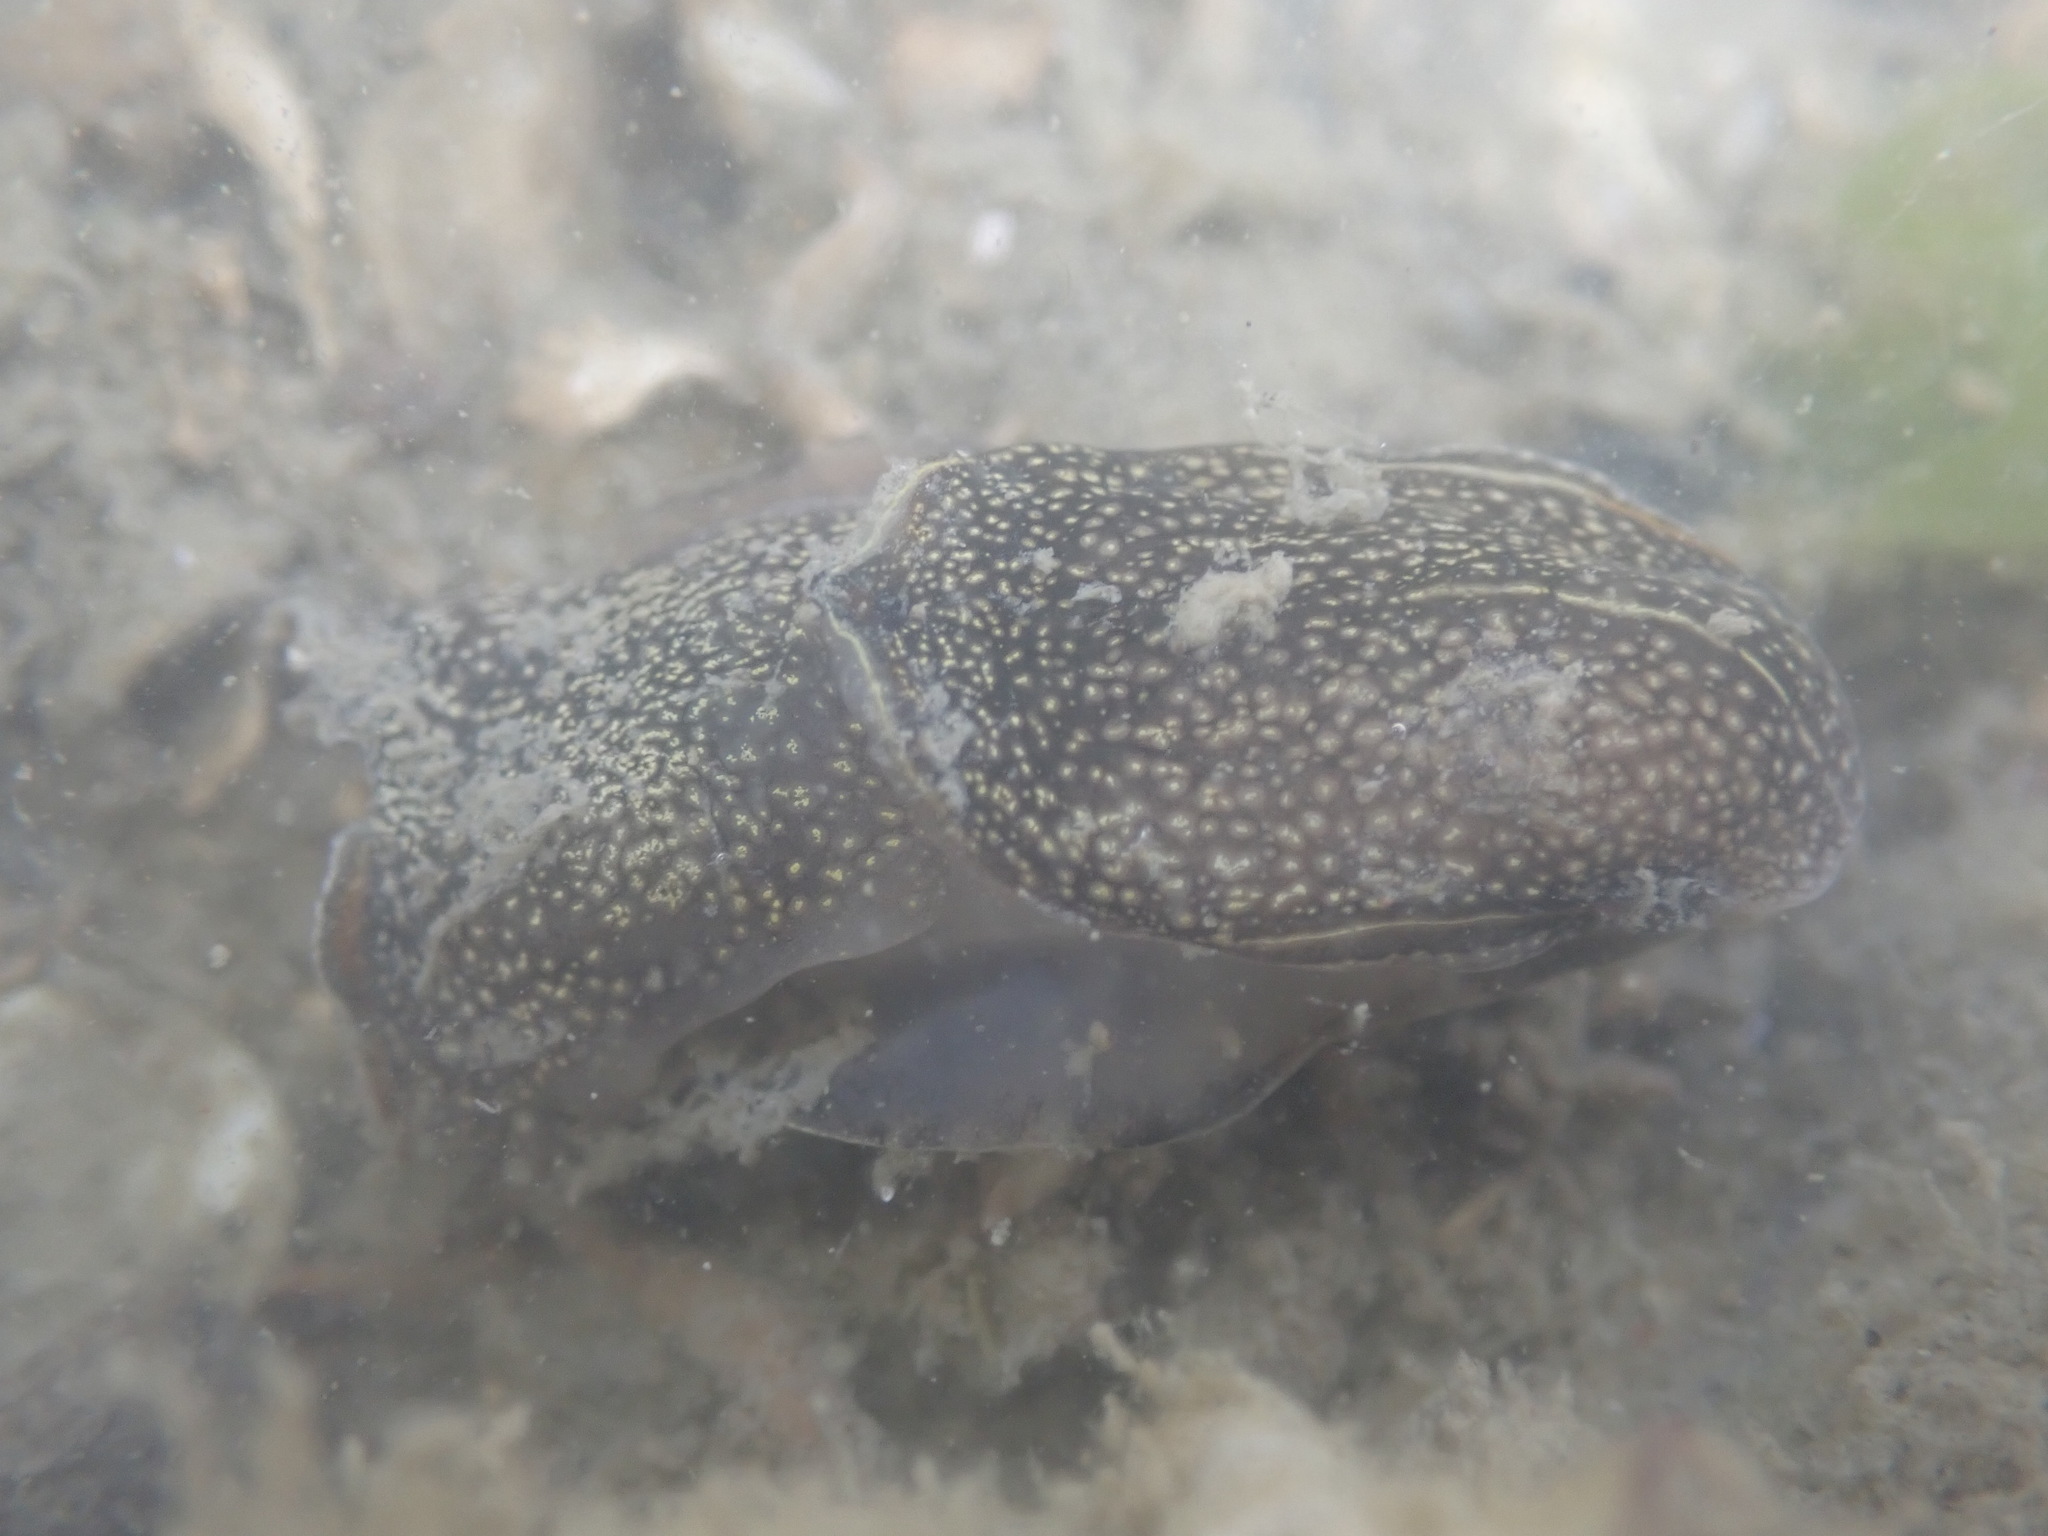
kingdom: Animalia
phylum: Mollusca
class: Gastropoda
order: Cephalaspidea
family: Aglajidae
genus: Philinopsis
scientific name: Philinopsis taronga
